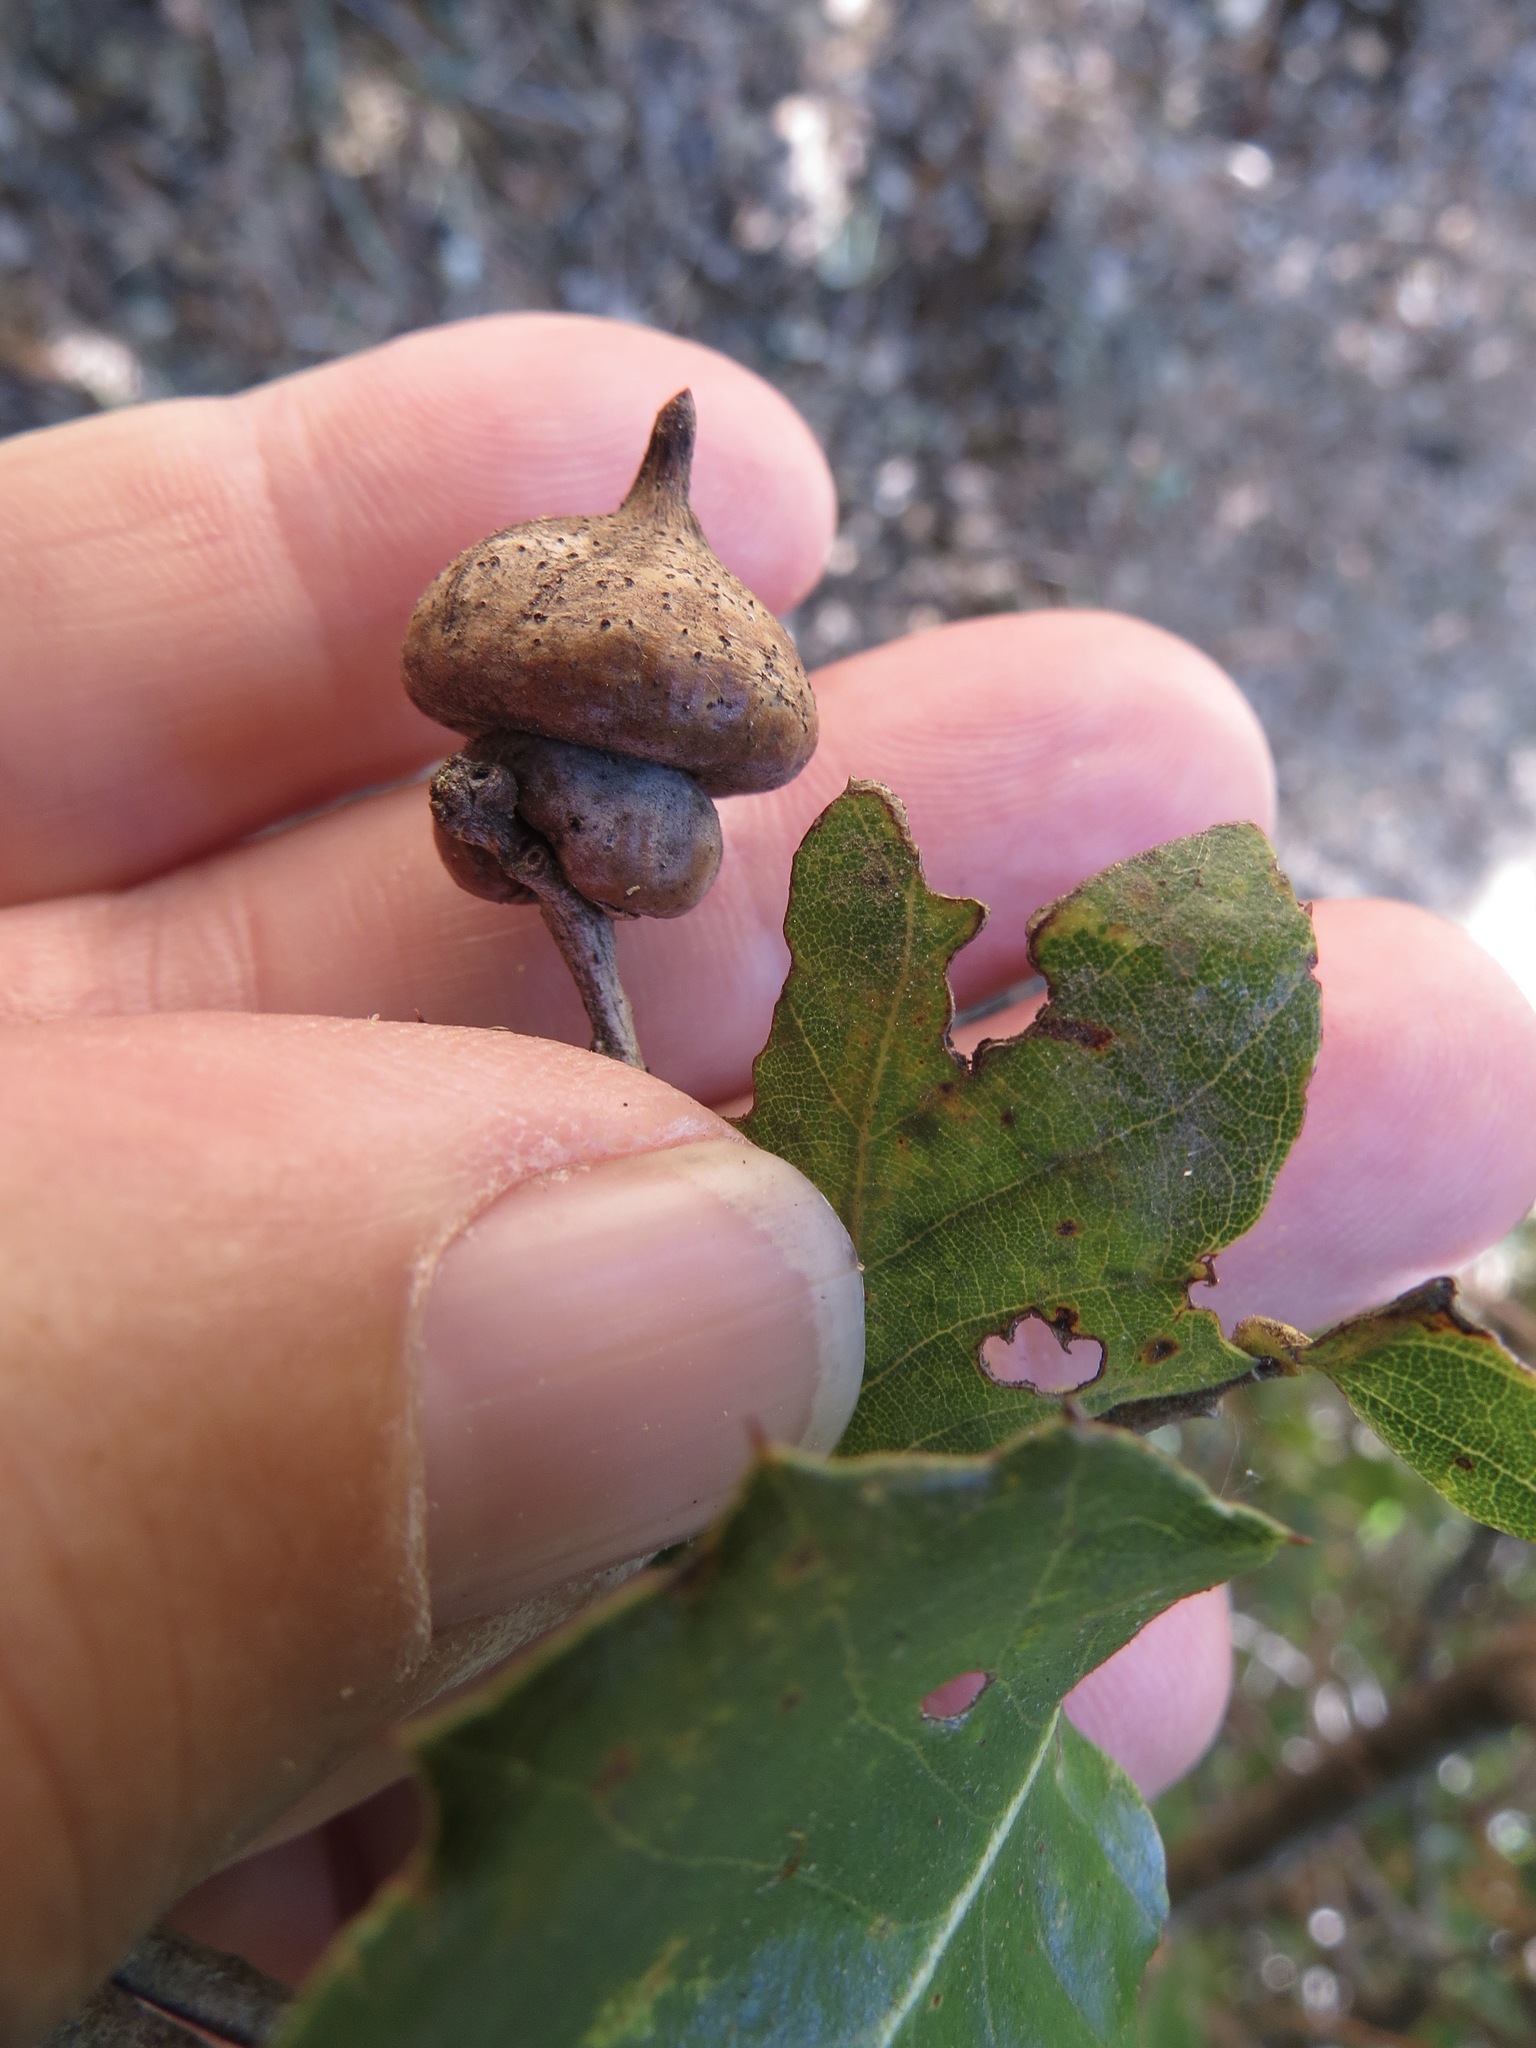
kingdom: Animalia
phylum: Arthropoda
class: Insecta
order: Hymenoptera
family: Cynipidae
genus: Heteroecus
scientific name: Heteroecus
